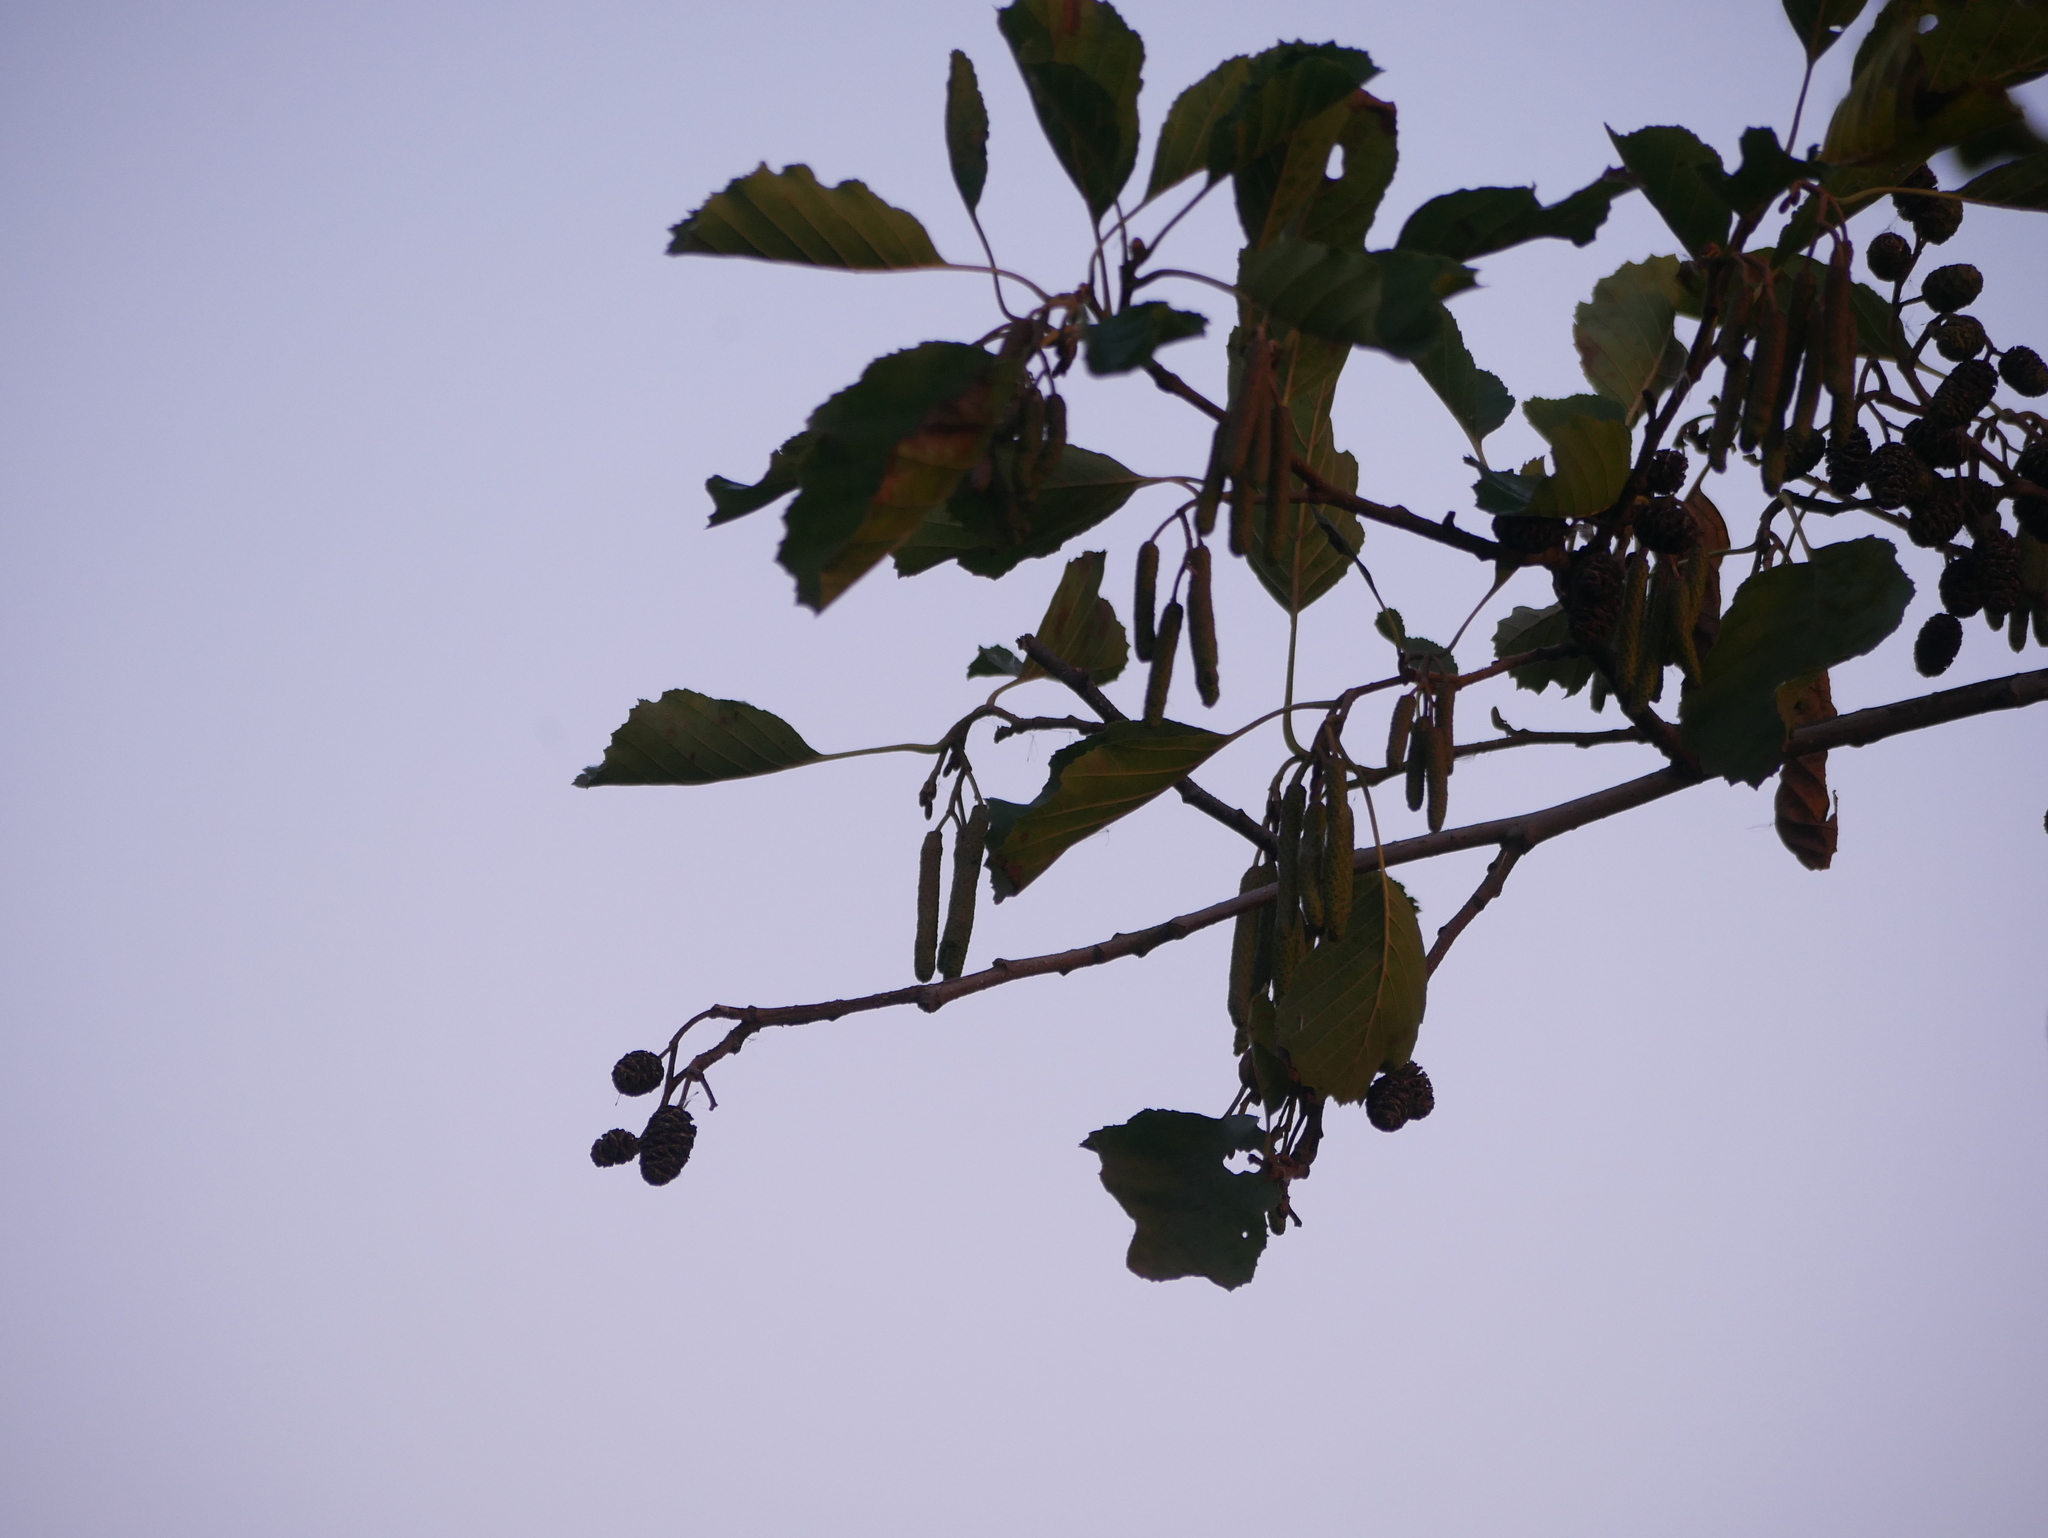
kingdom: Plantae
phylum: Tracheophyta
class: Magnoliopsida
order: Fagales
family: Betulaceae
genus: Alnus
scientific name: Alnus glutinosa
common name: Black alder
